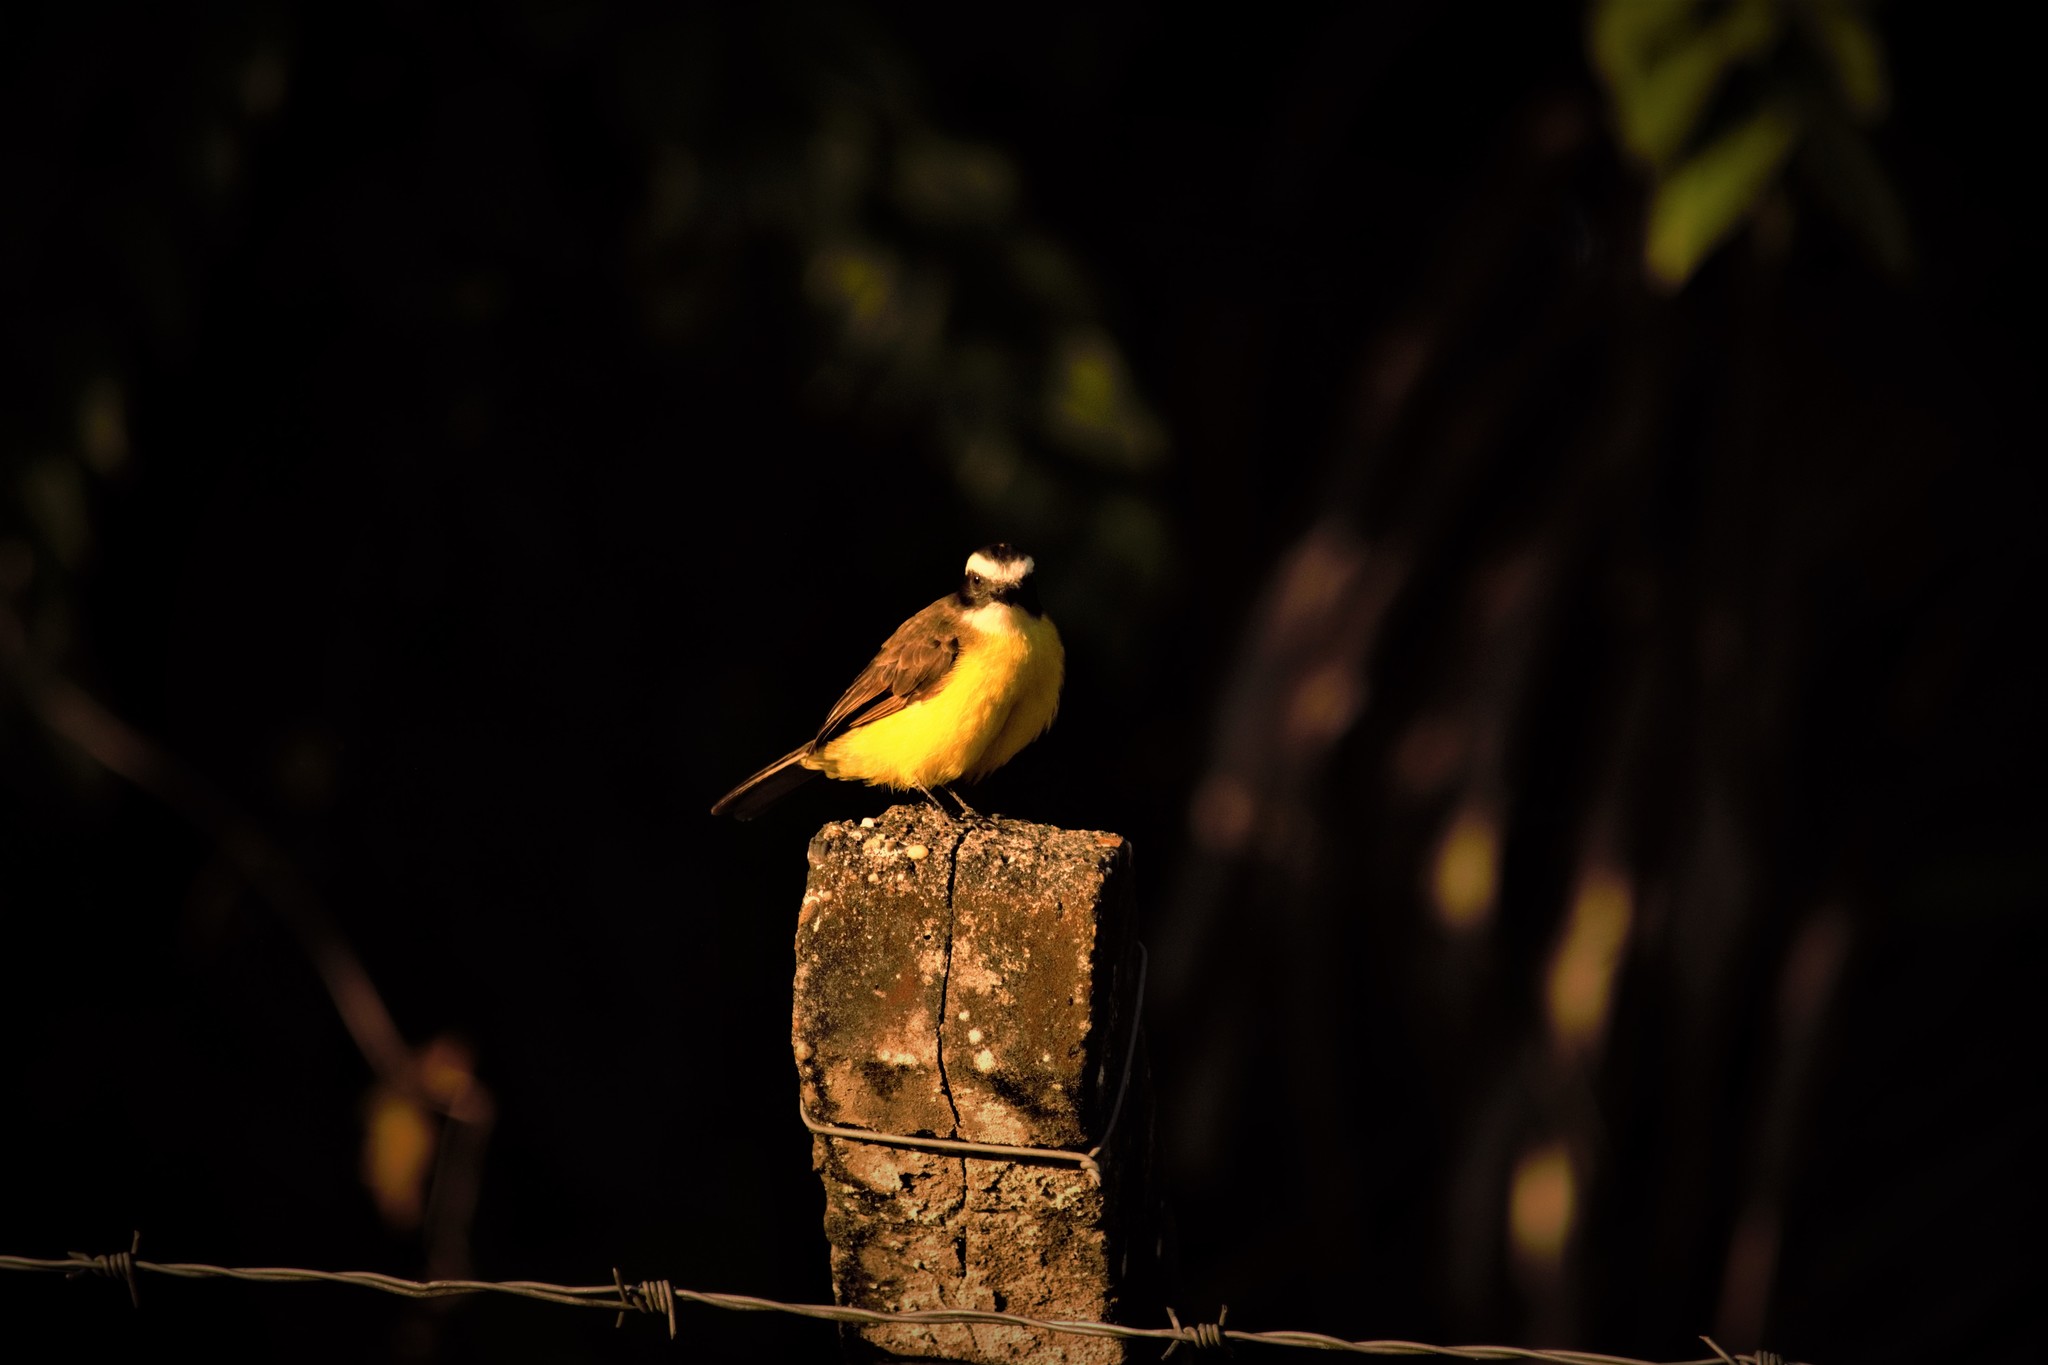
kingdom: Animalia
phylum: Chordata
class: Aves
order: Passeriformes
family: Tyrannidae
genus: Pitangus
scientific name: Pitangus sulphuratus
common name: Great kiskadee
